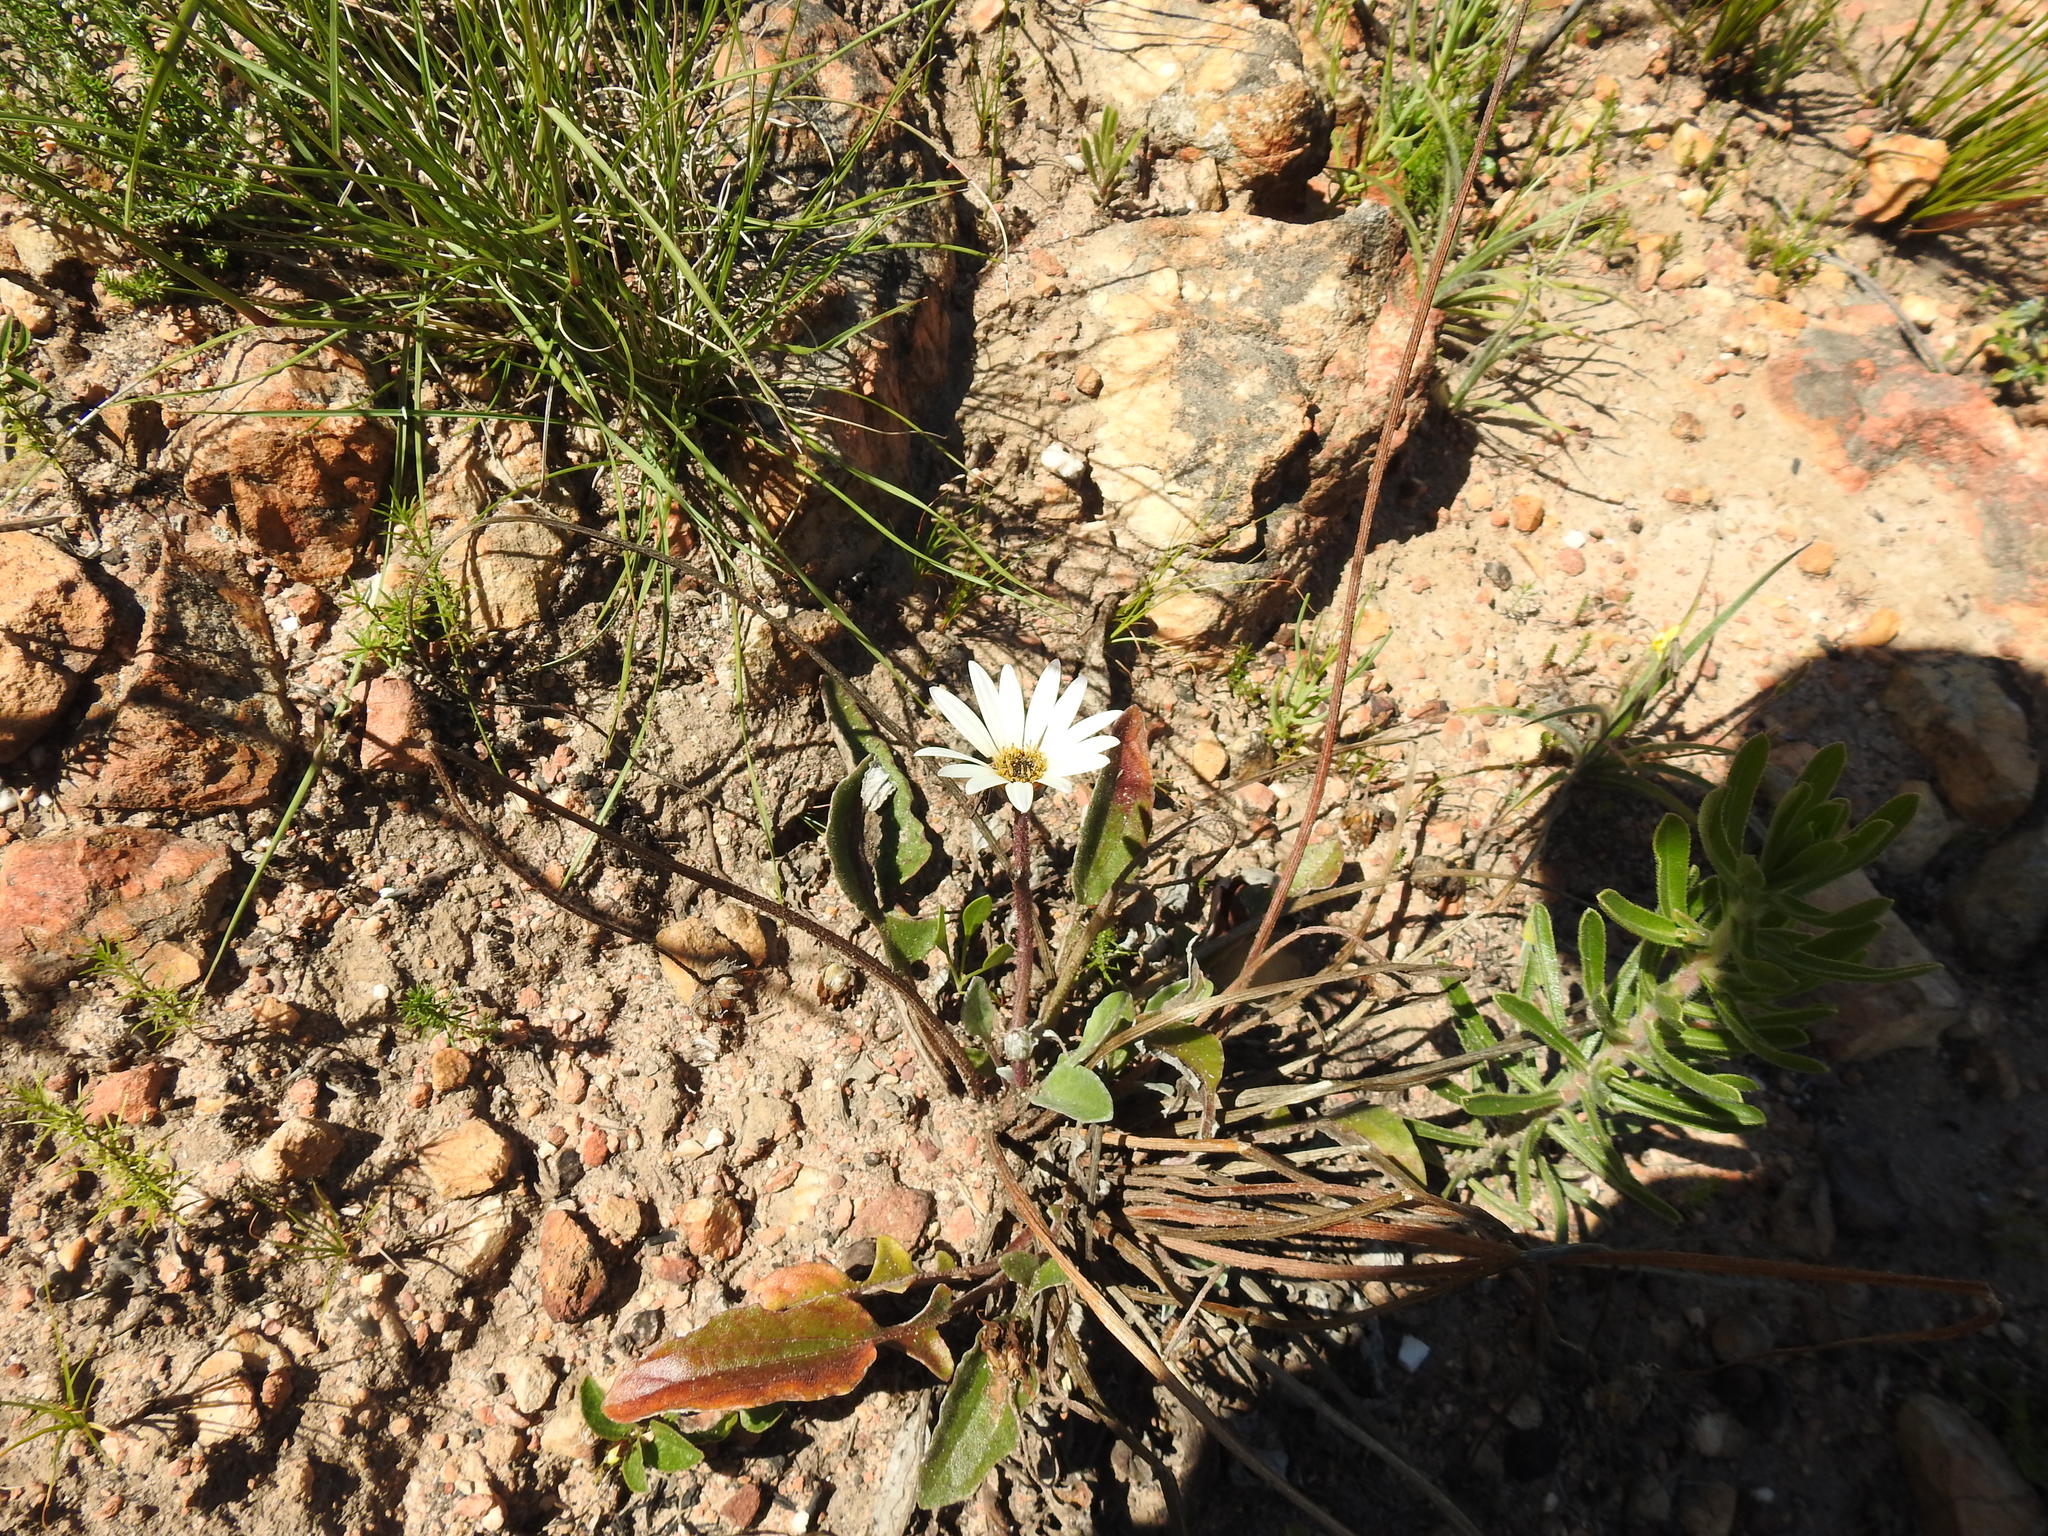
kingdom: Plantae
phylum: Tracheophyta
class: Magnoliopsida
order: Asterales
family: Asteraceae
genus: Arctotis
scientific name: Arctotis acaulis
